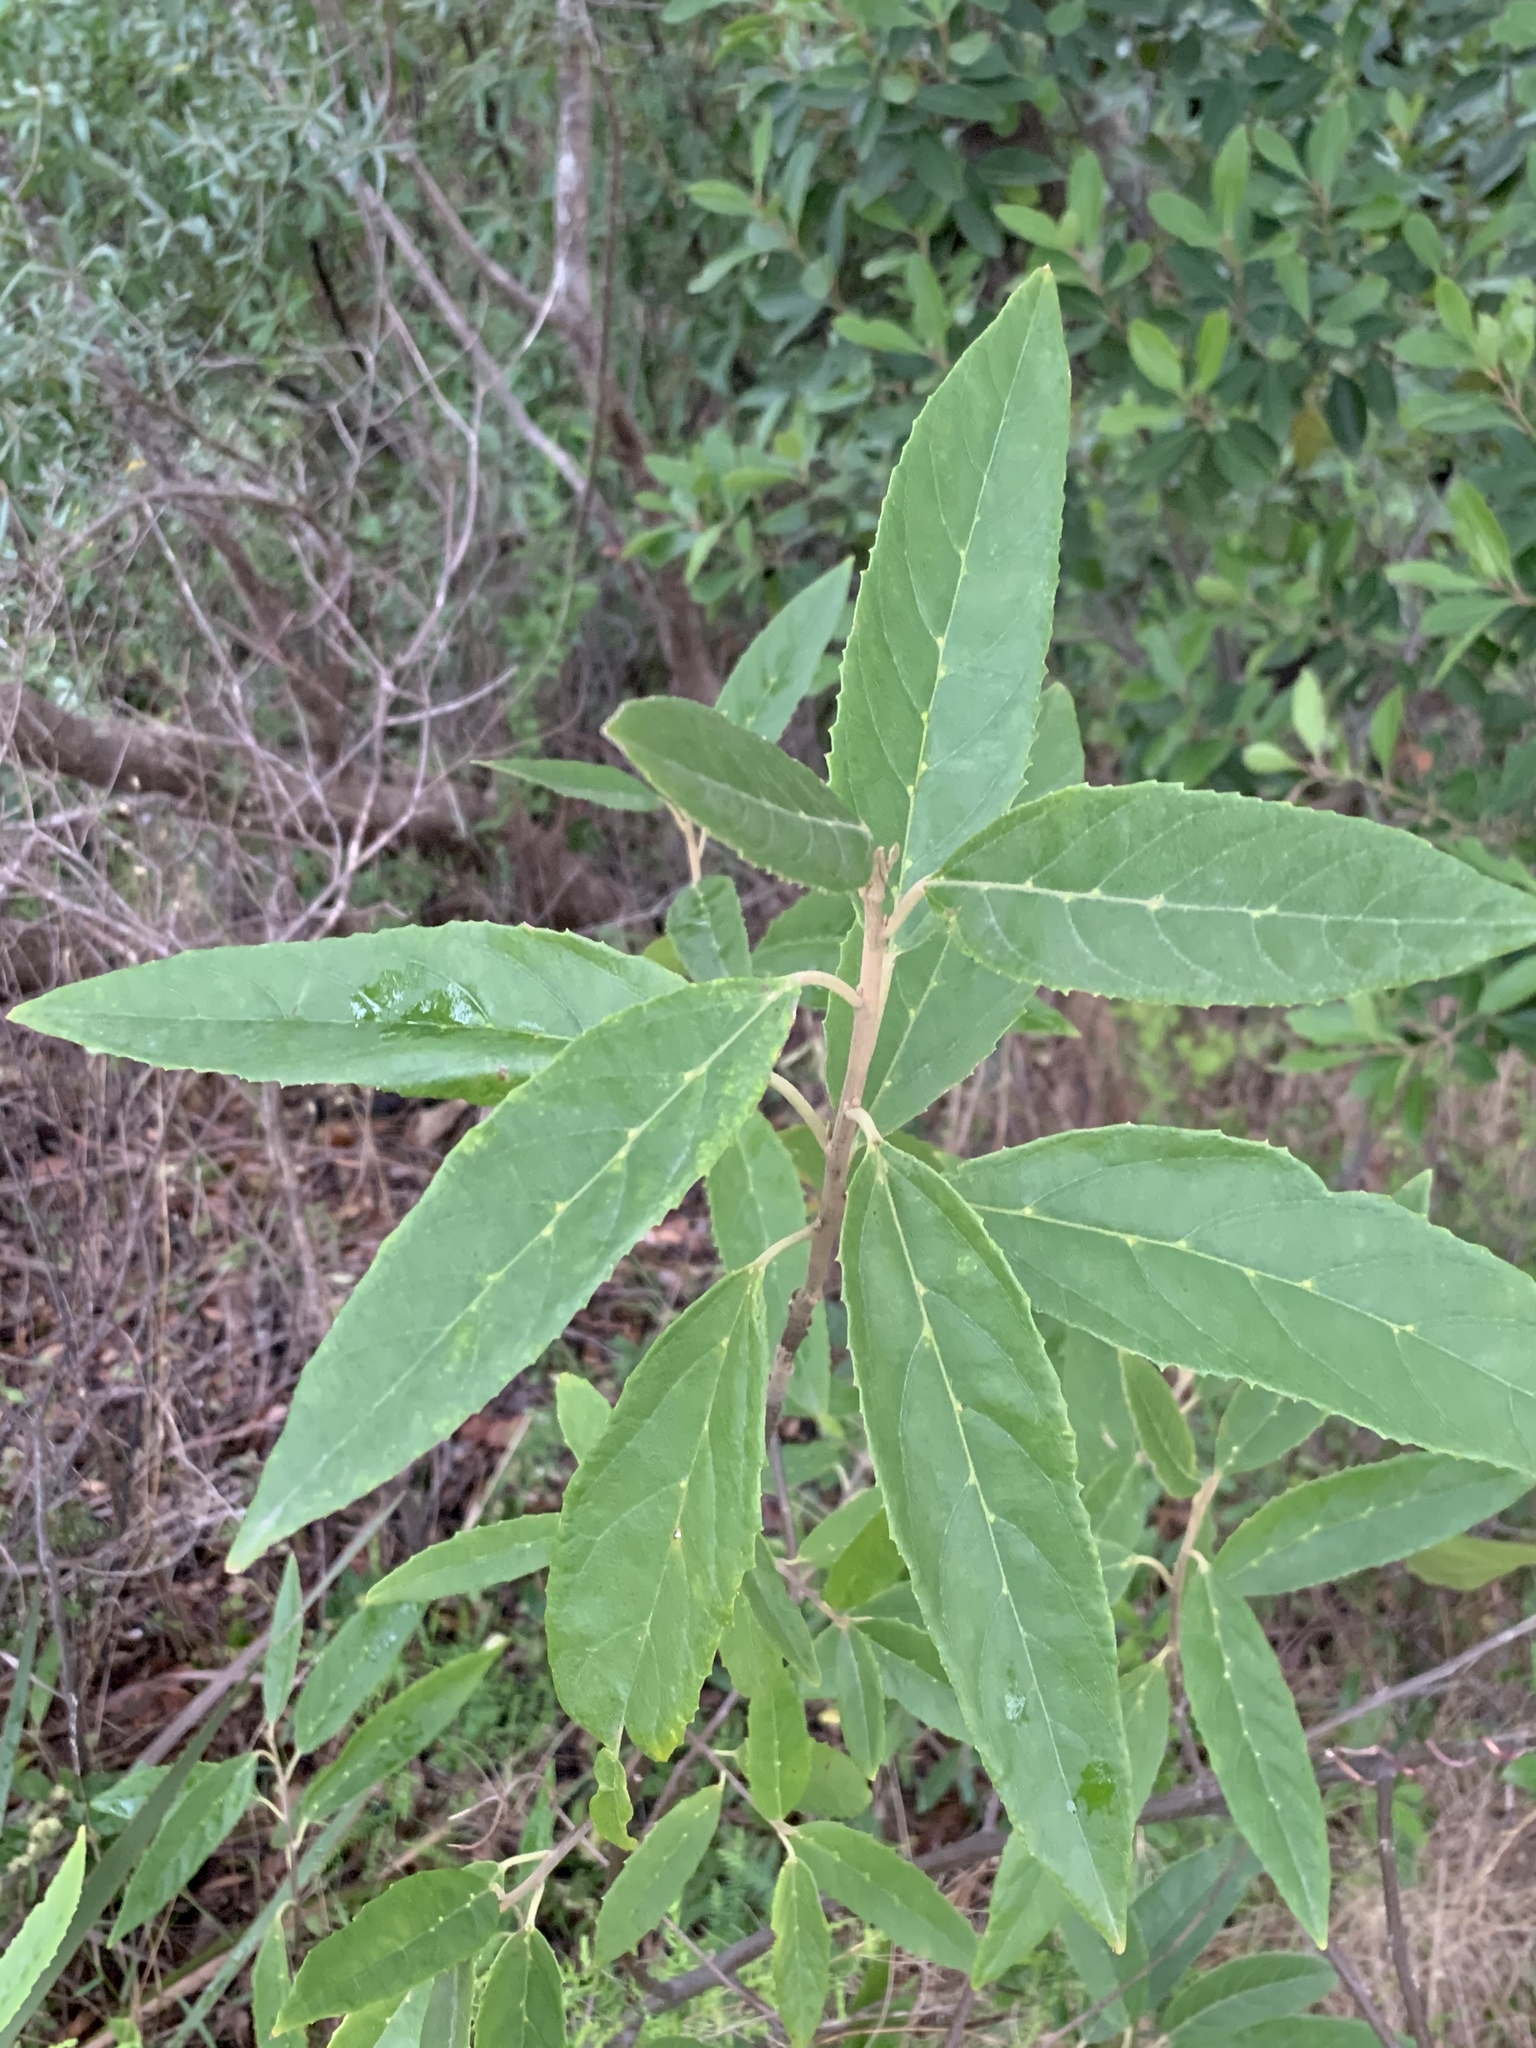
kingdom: Plantae
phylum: Tracheophyta
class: Magnoliopsida
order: Malpighiales
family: Achariaceae
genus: Kiggelaria
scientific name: Kiggelaria africana
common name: Wild peach
